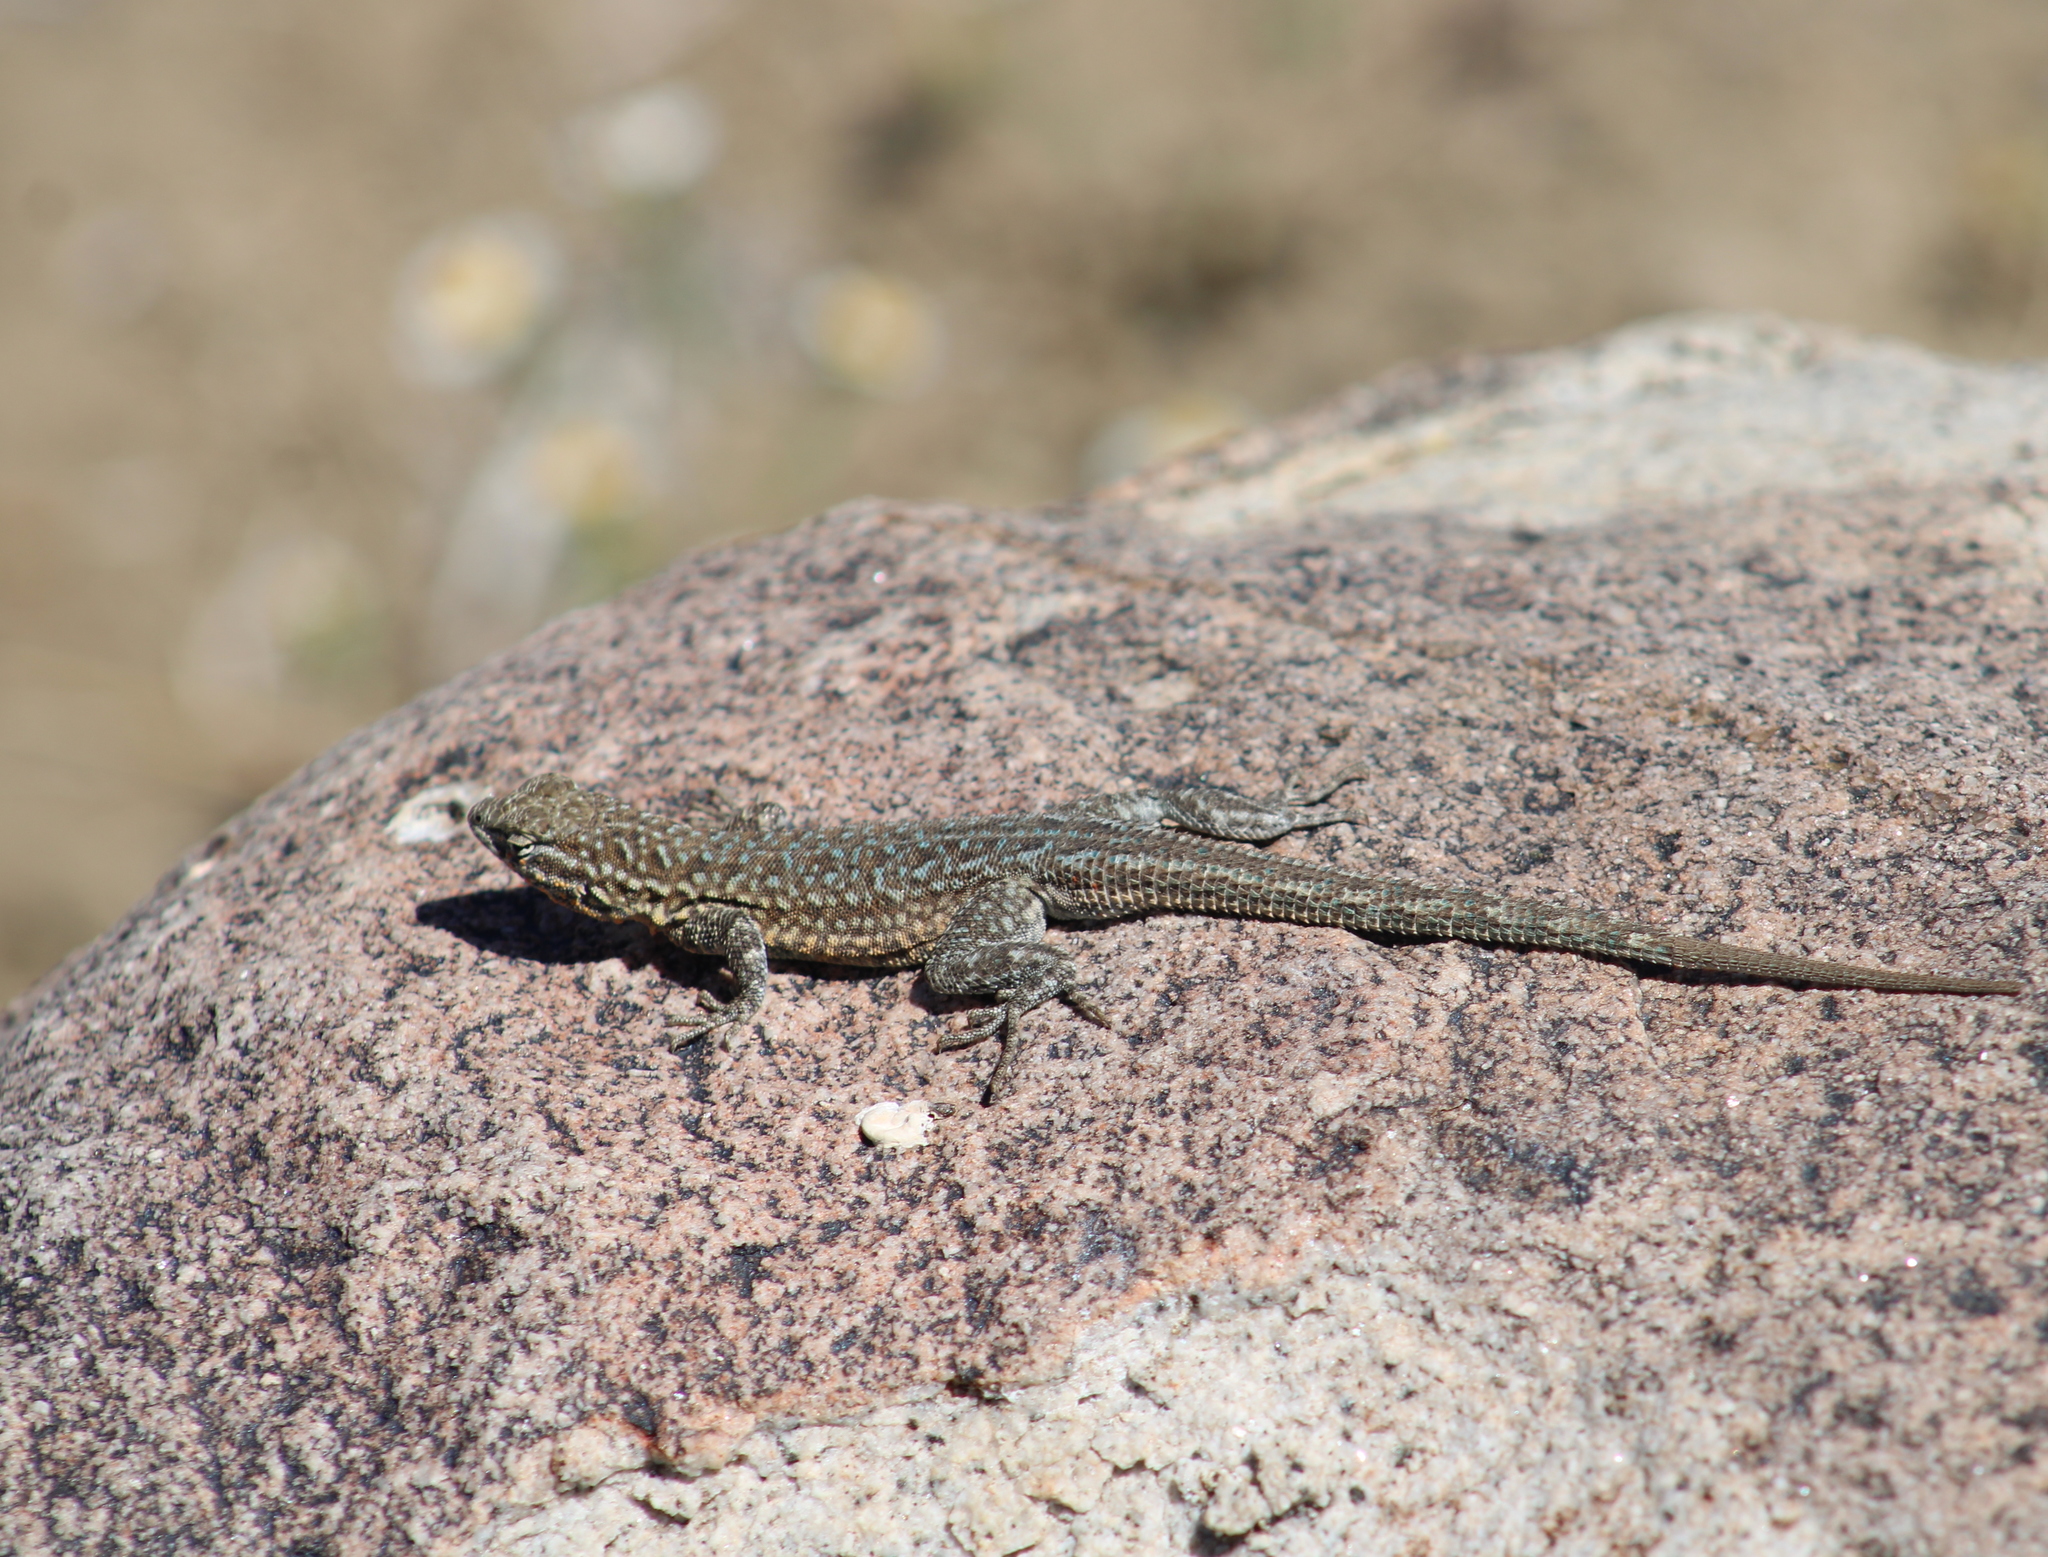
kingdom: Animalia
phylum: Chordata
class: Squamata
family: Phrynosomatidae
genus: Uta
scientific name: Uta stansburiana
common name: Side-blotched lizard
